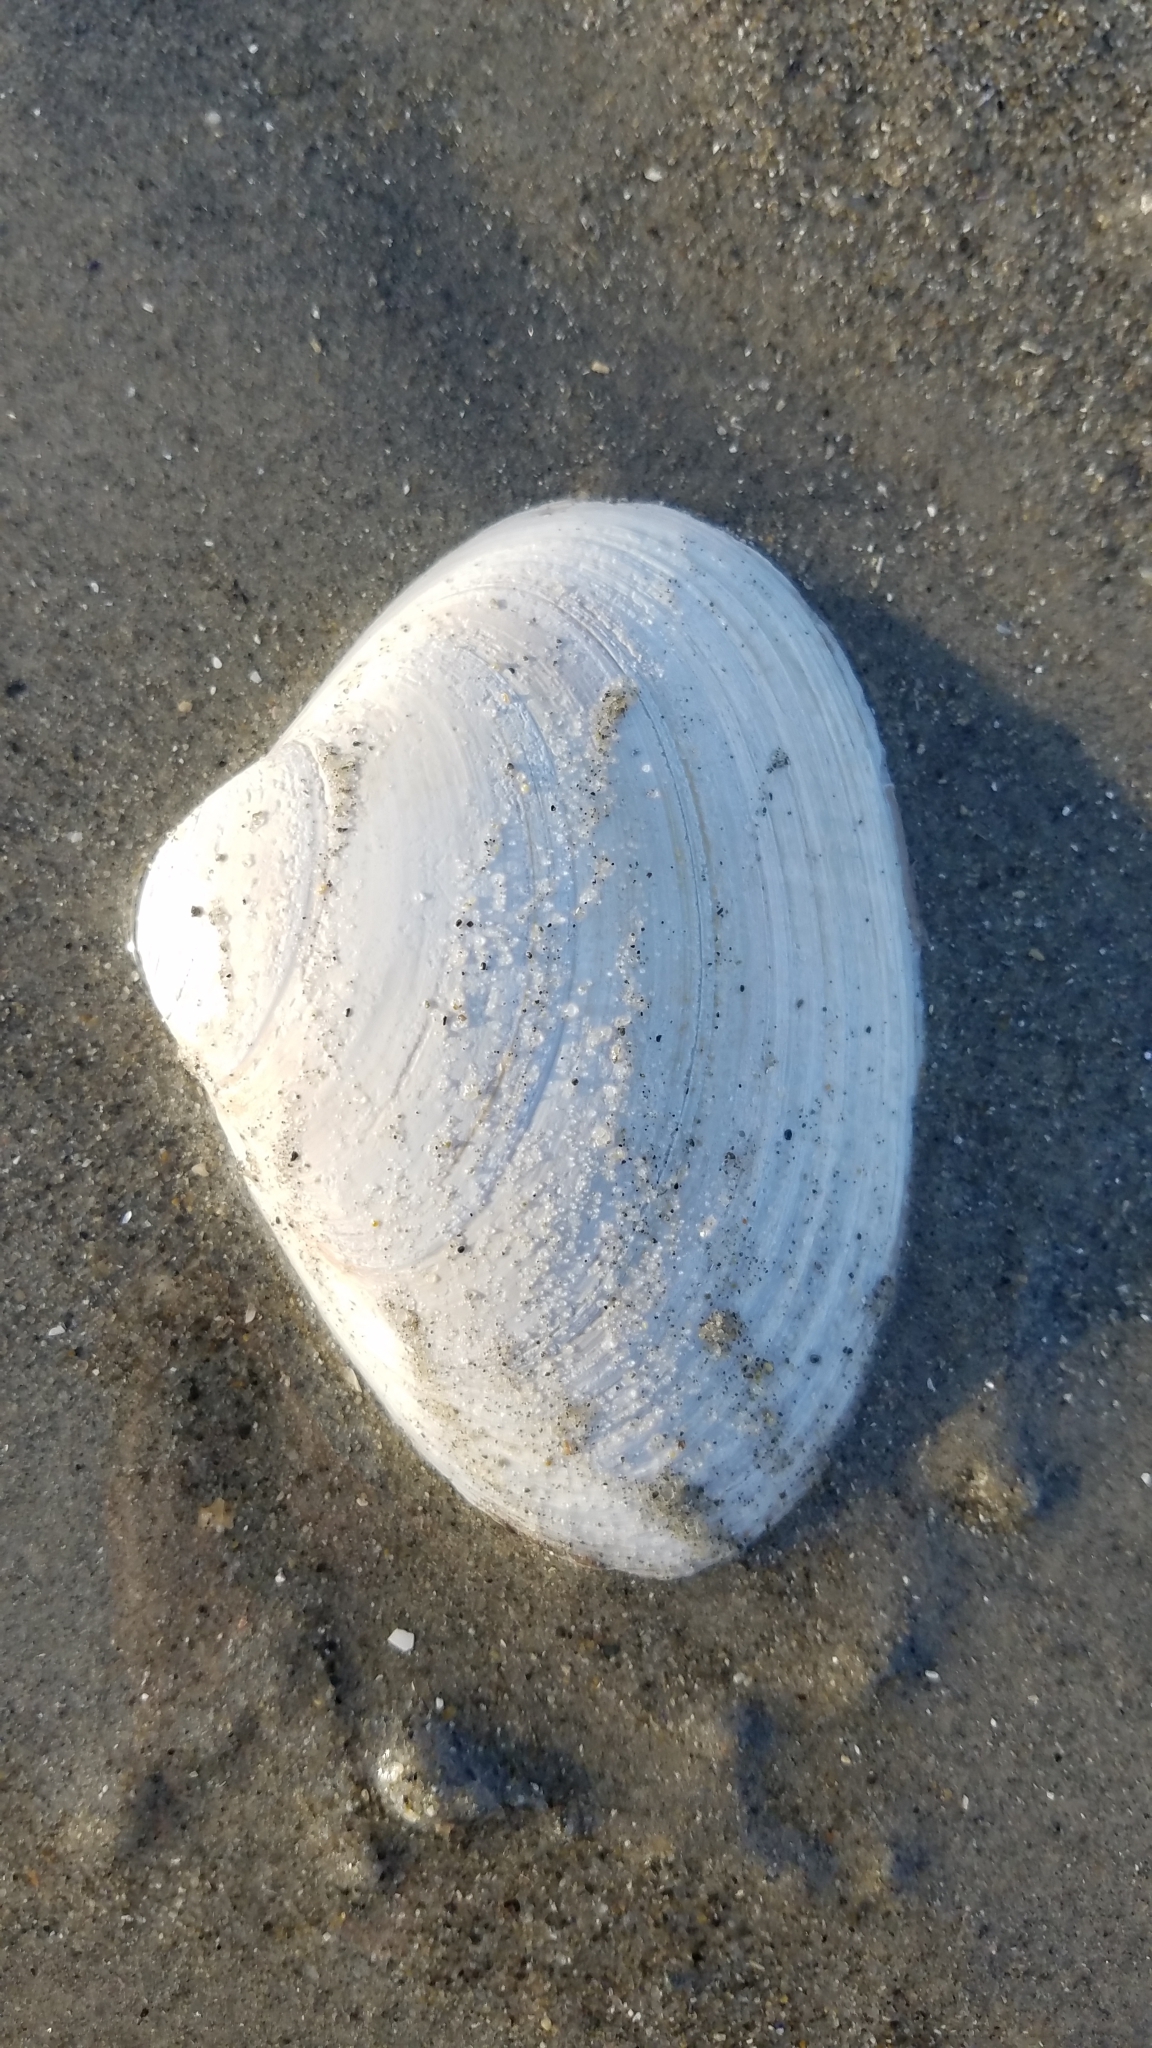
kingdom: Animalia
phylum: Mollusca
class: Bivalvia
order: Venerida
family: Mactridae
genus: Spisula
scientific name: Spisula solidissima
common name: Atlantic surf clam
